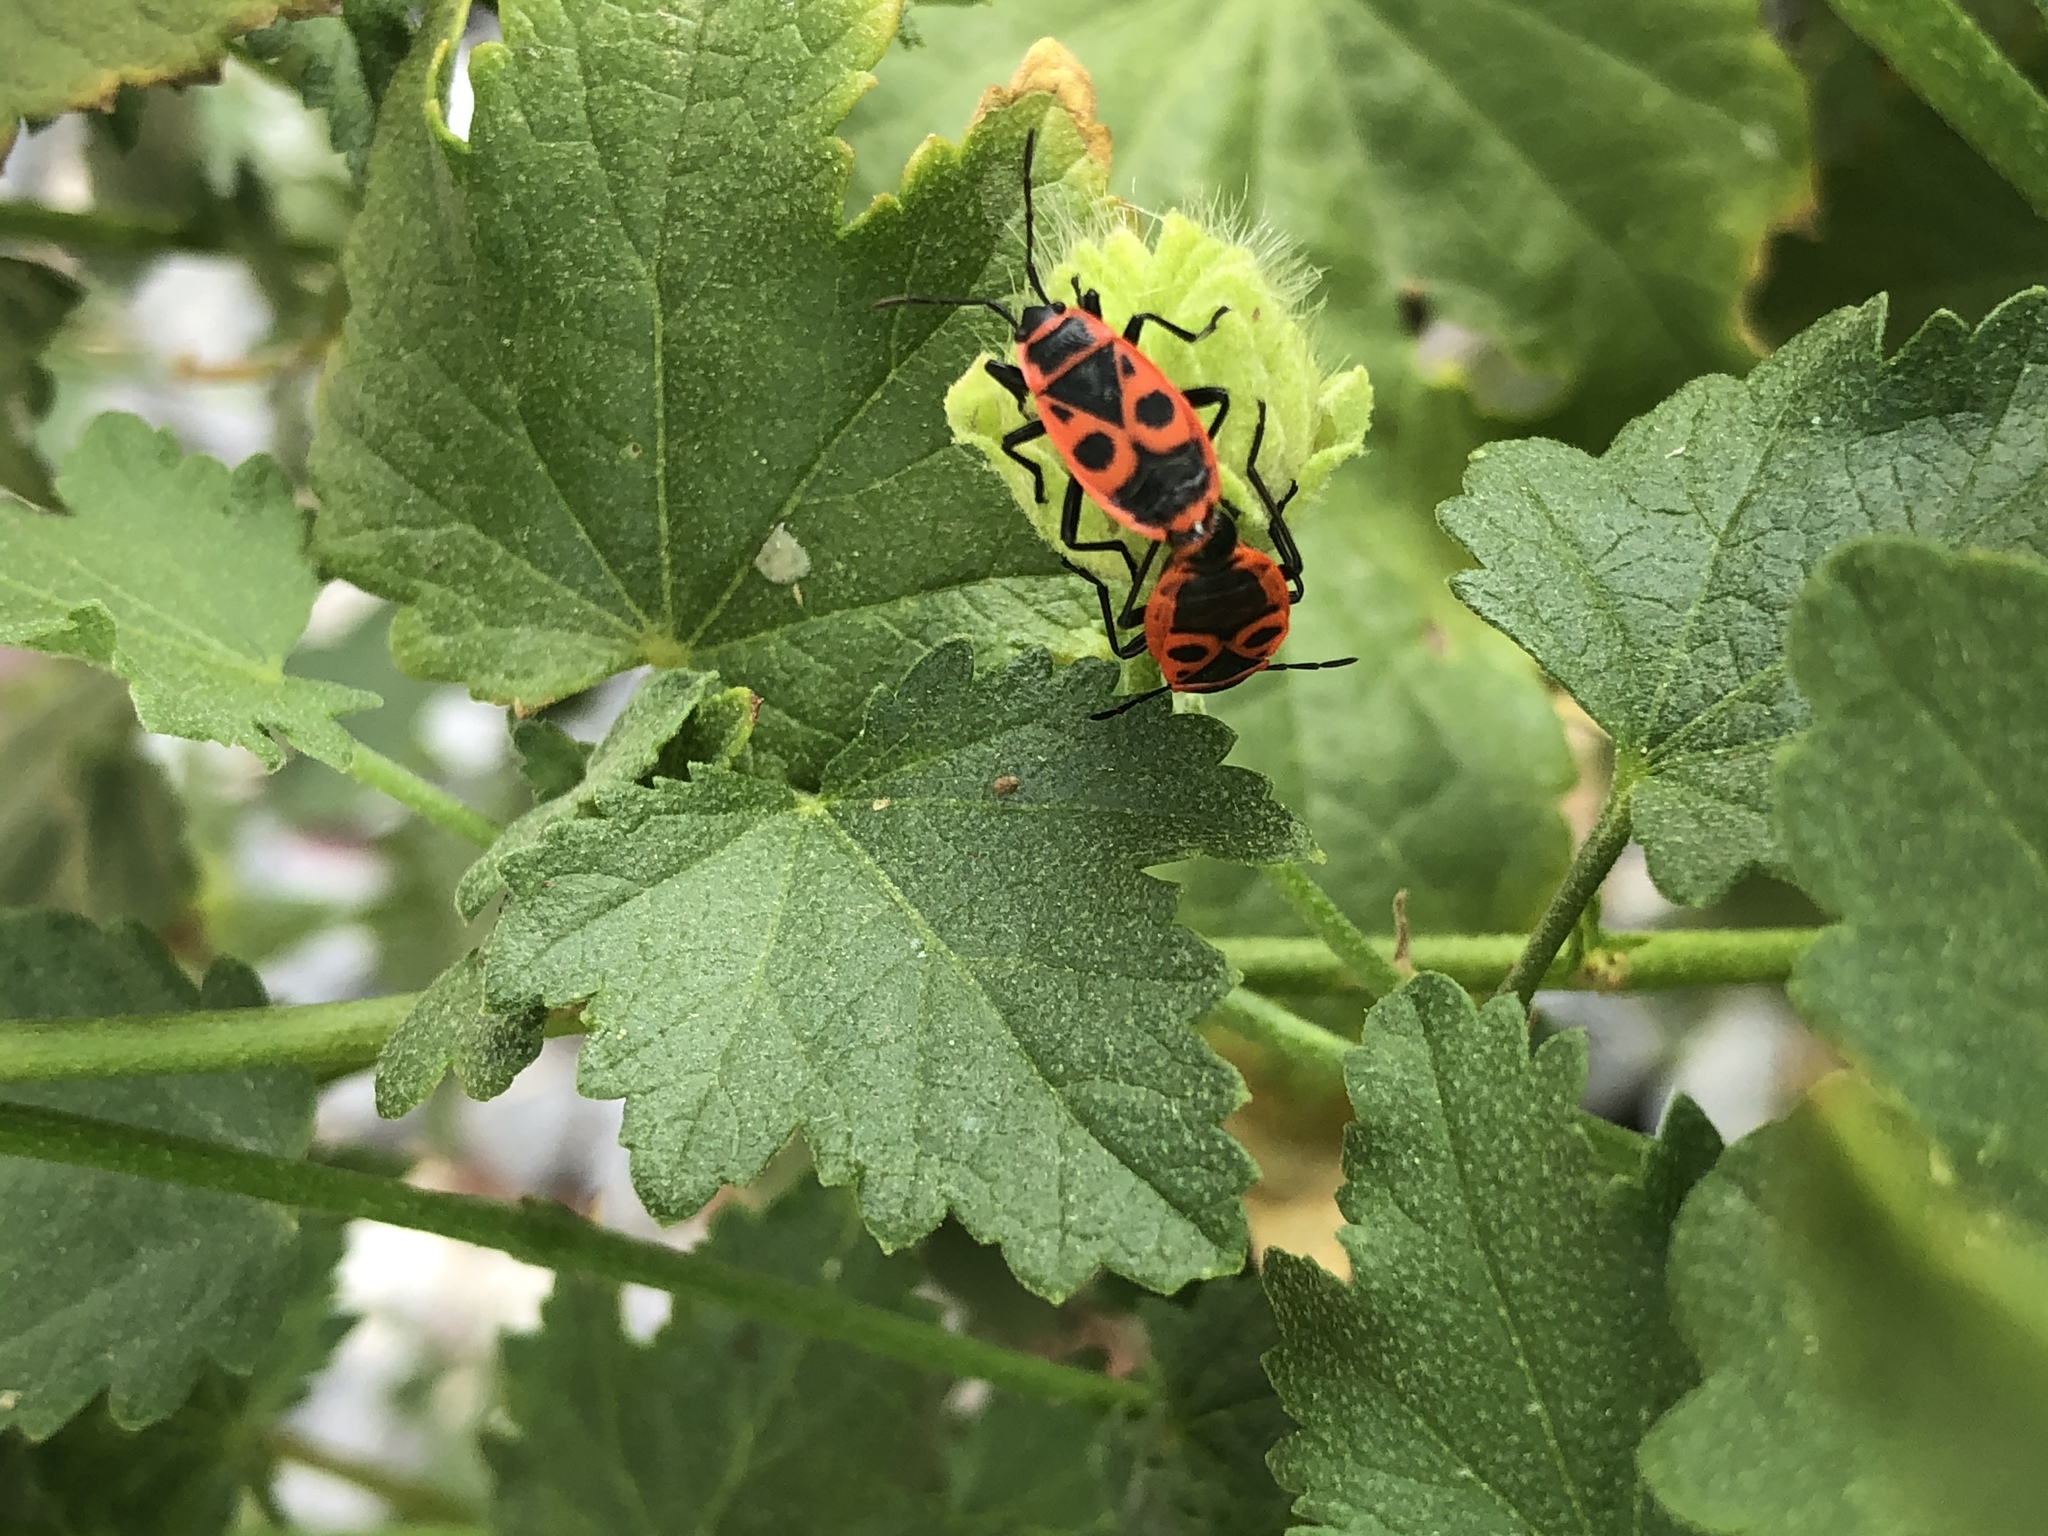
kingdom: Animalia
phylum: Arthropoda
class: Insecta
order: Hemiptera
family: Pyrrhocoridae
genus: Pyrrhocoris
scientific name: Pyrrhocoris apterus
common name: Firebug
